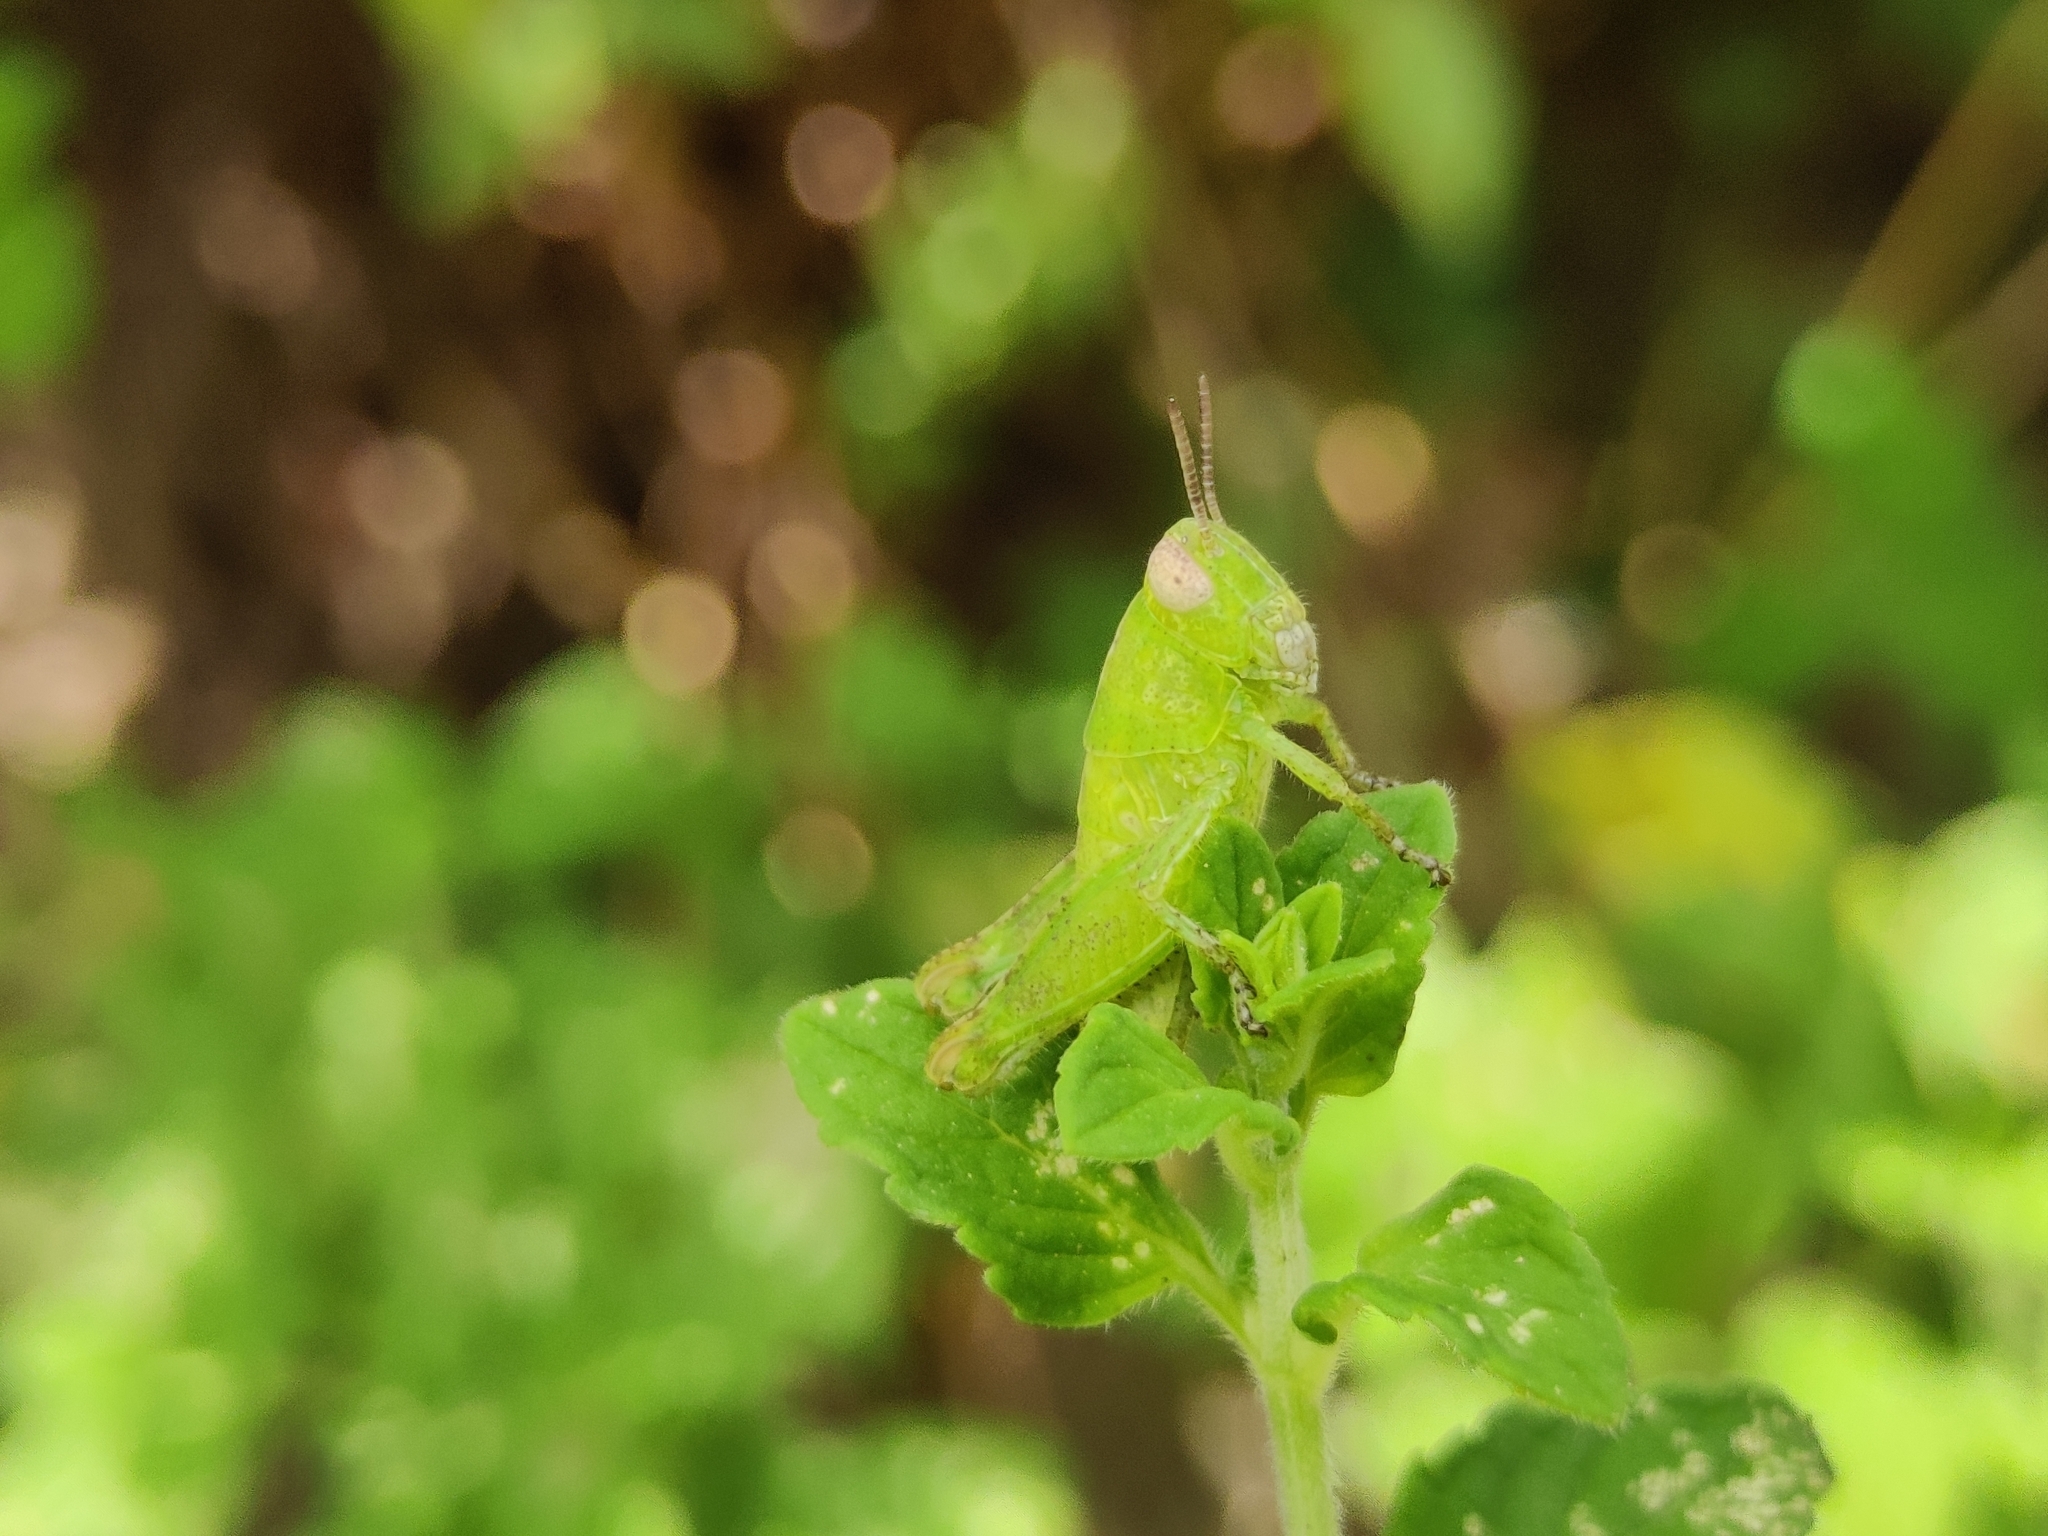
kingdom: Animalia
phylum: Arthropoda
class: Insecta
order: Orthoptera
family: Acrididae
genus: Pezotettix
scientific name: Pezotettix giornae
